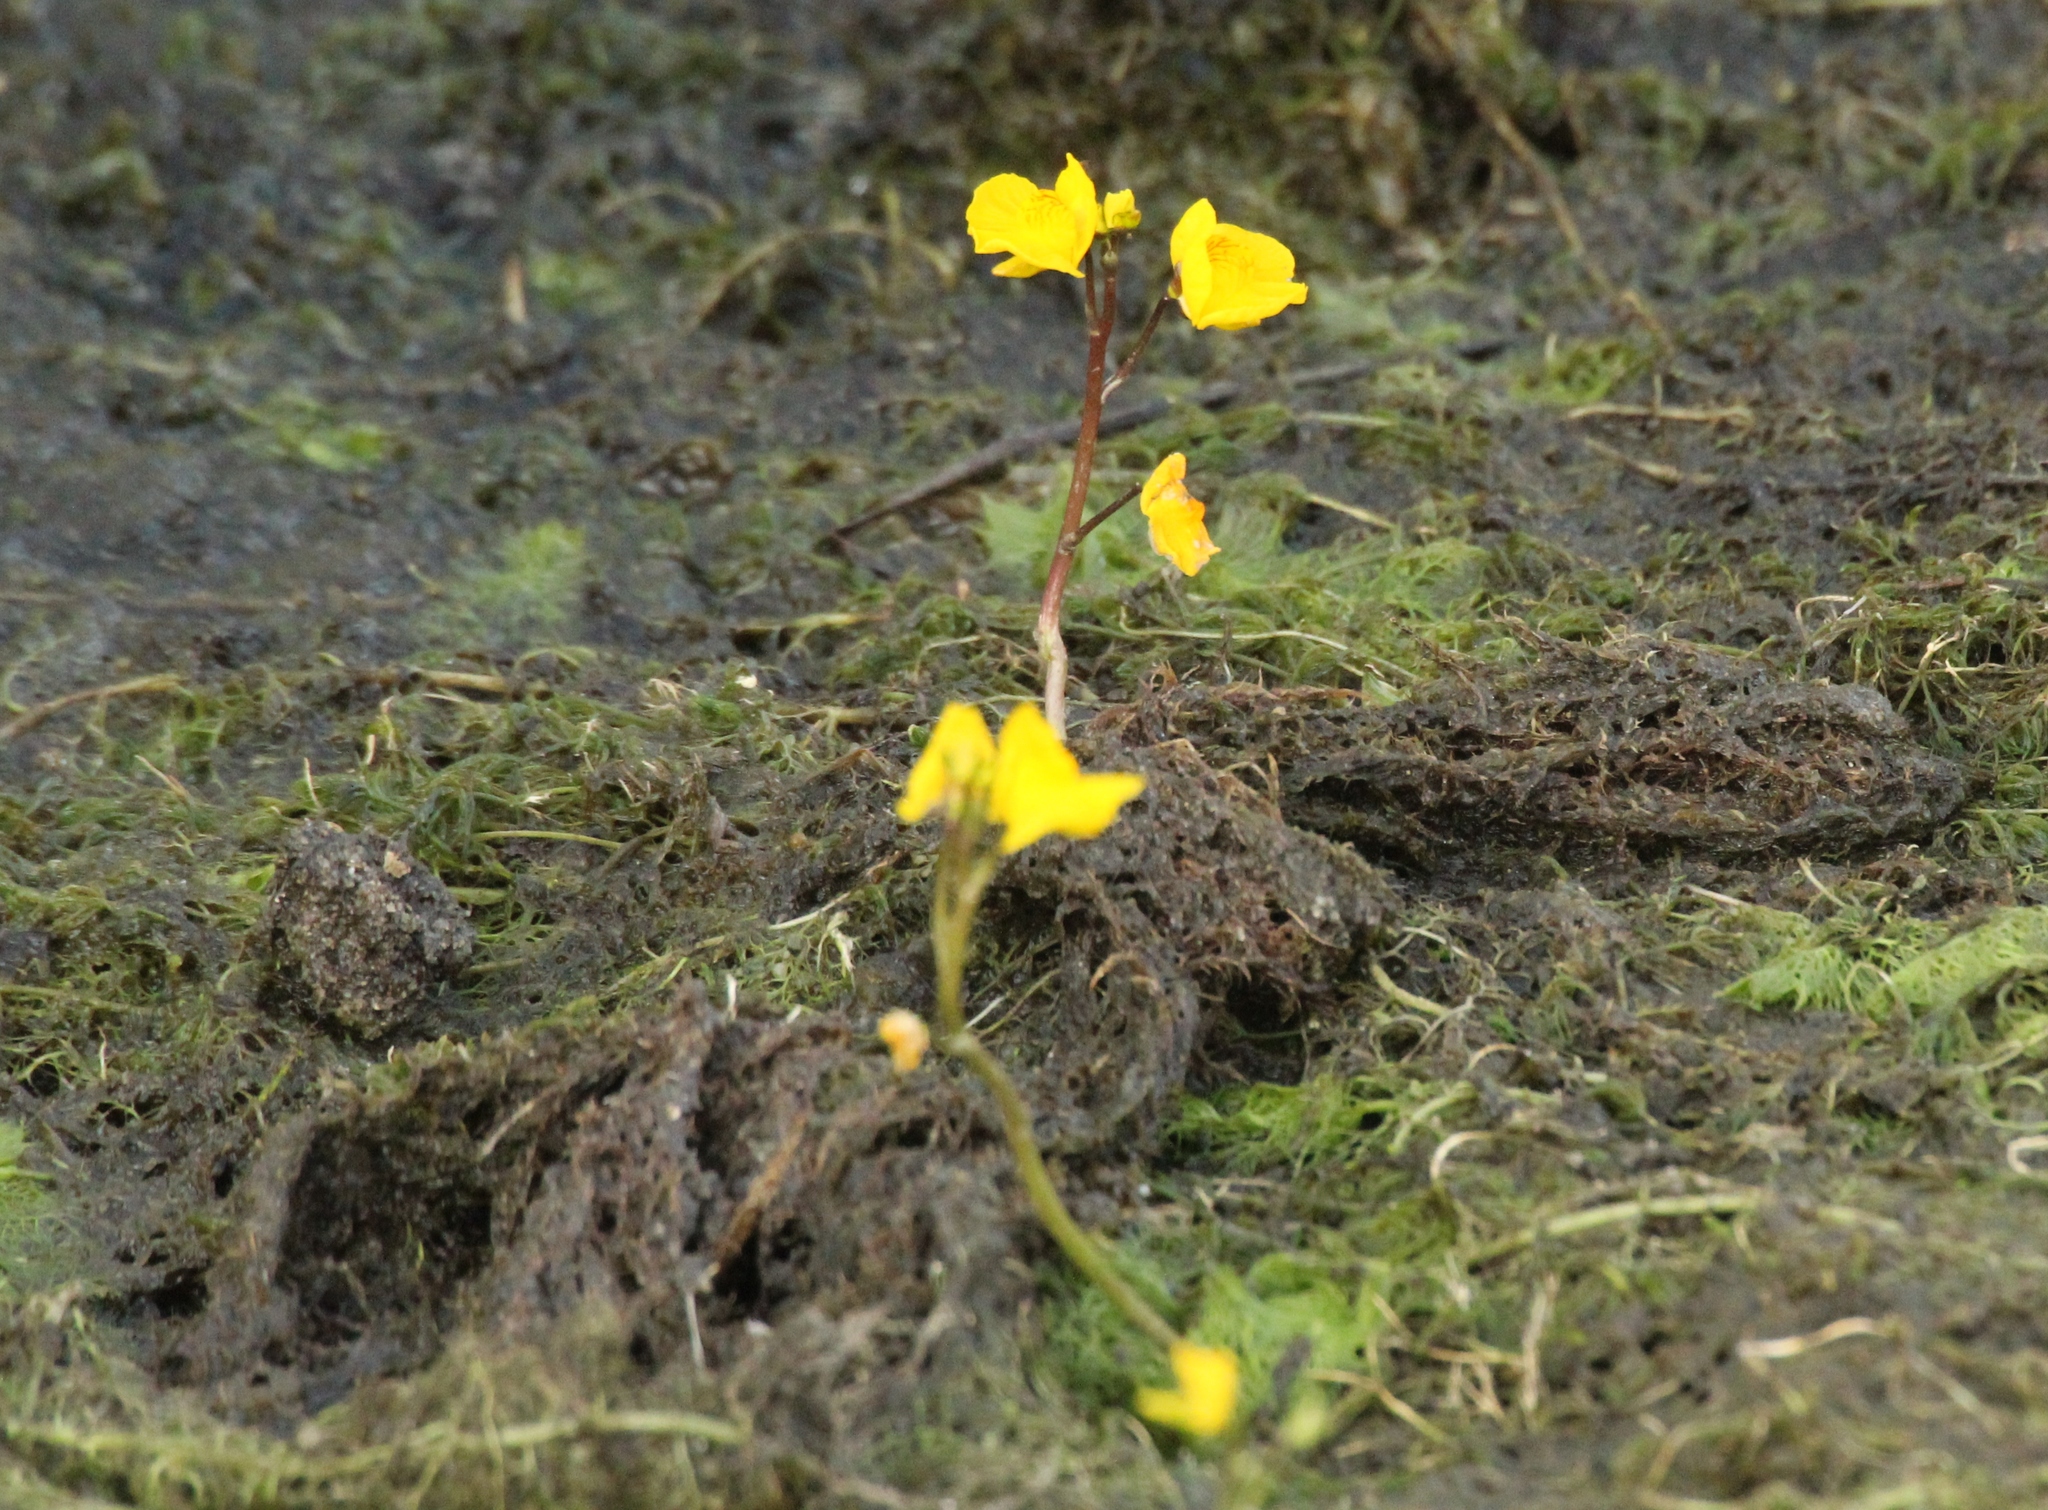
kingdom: Plantae
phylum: Tracheophyta
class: Magnoliopsida
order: Lamiales
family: Lentibulariaceae
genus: Utricularia
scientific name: Utricularia australis
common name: Bladderwort
